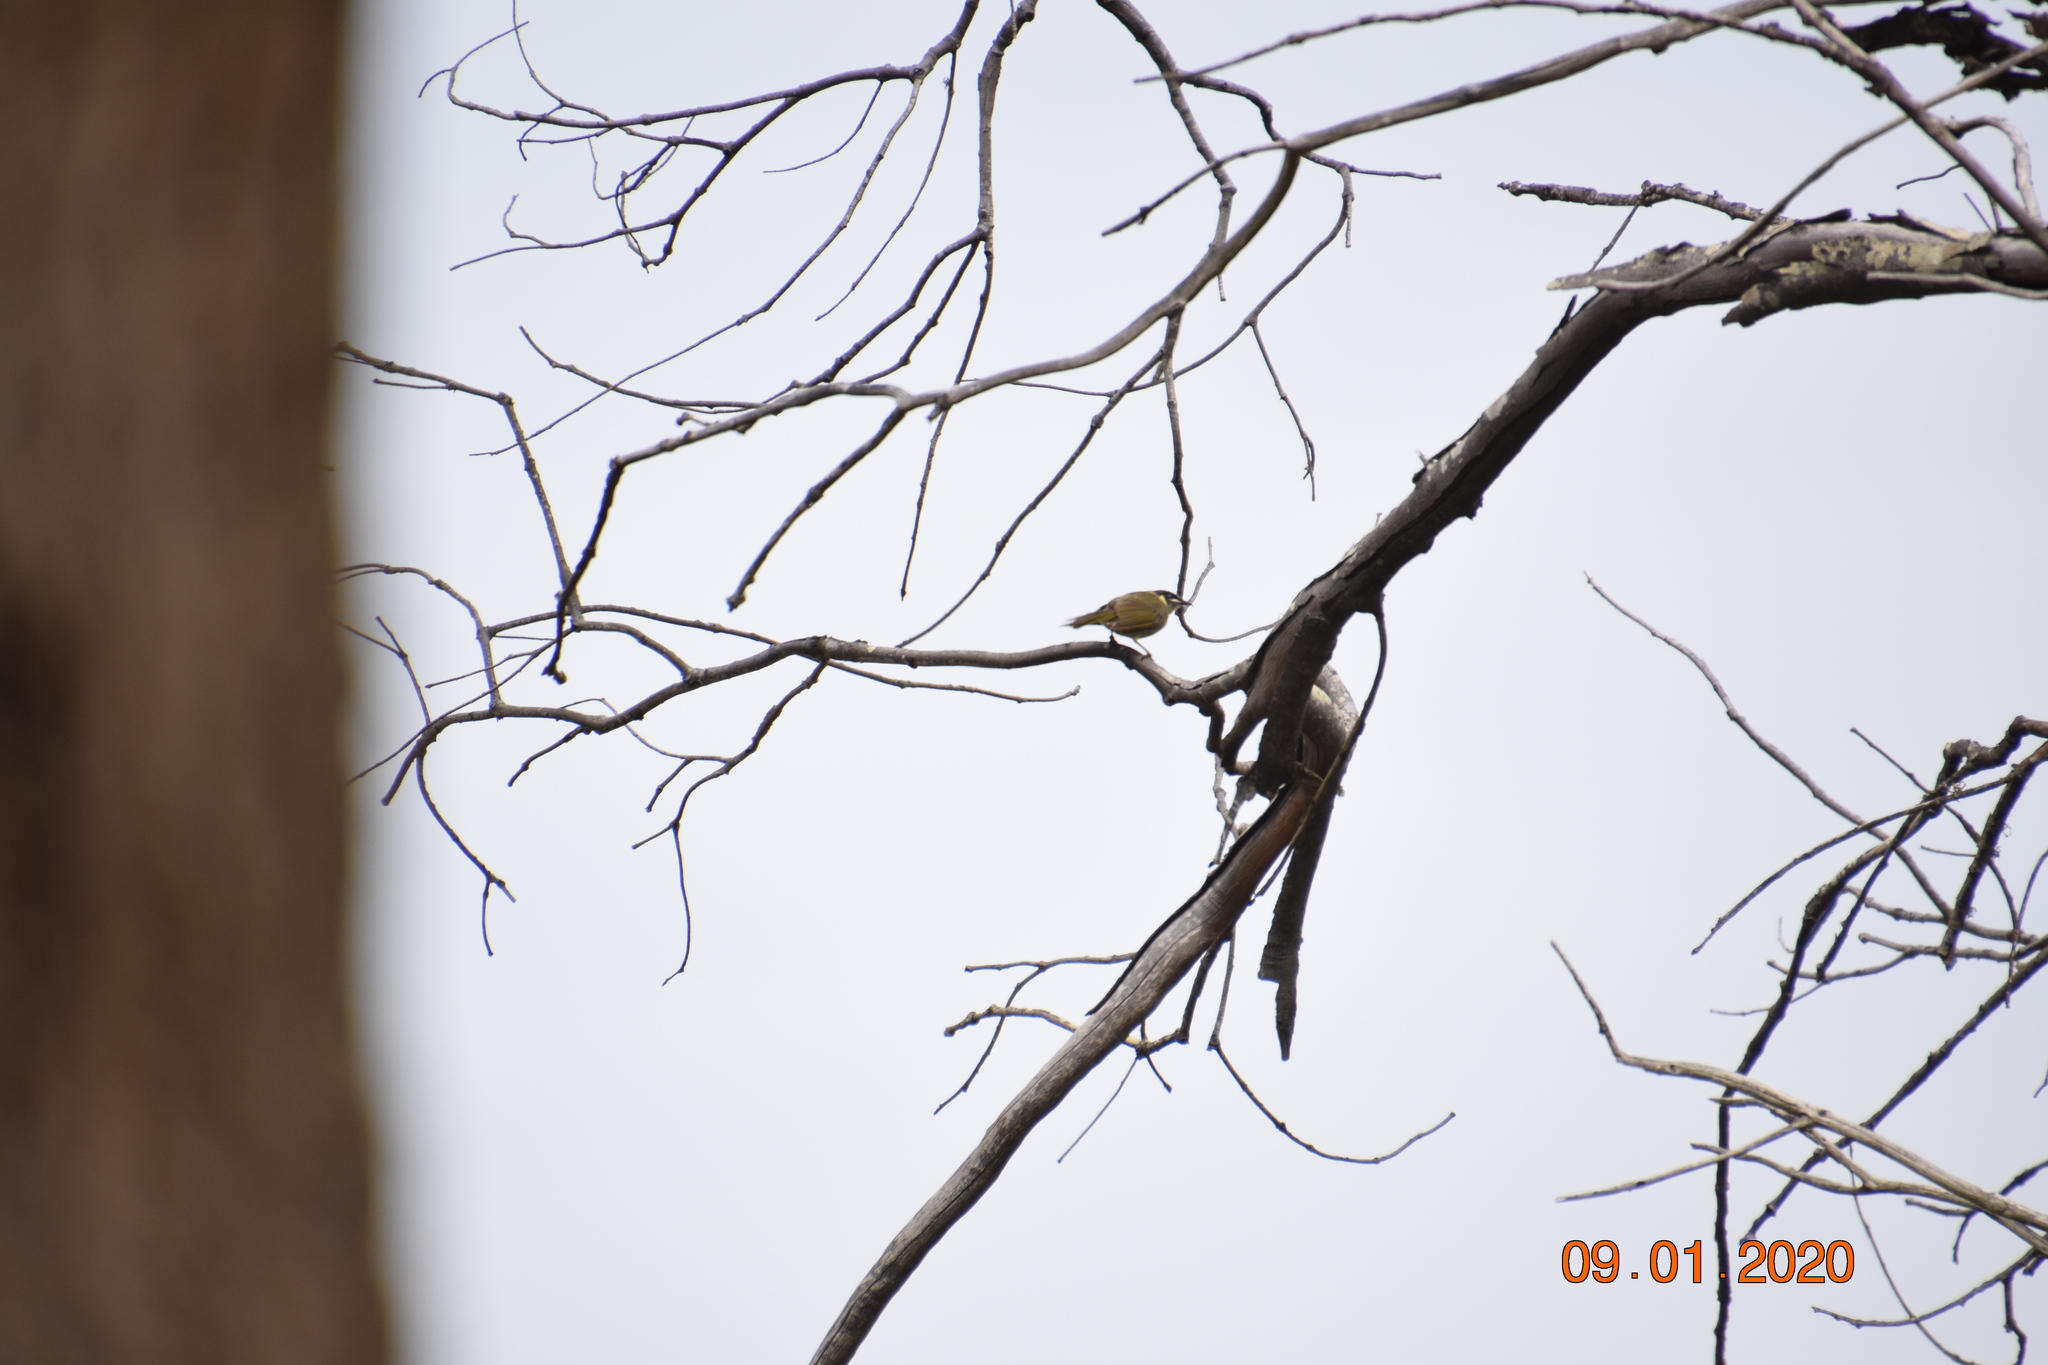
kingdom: Animalia
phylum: Chordata
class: Aves
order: Passeriformes
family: Meliphagidae
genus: Meliphaga
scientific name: Meliphaga lewinii
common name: Lewin's honeyeater
